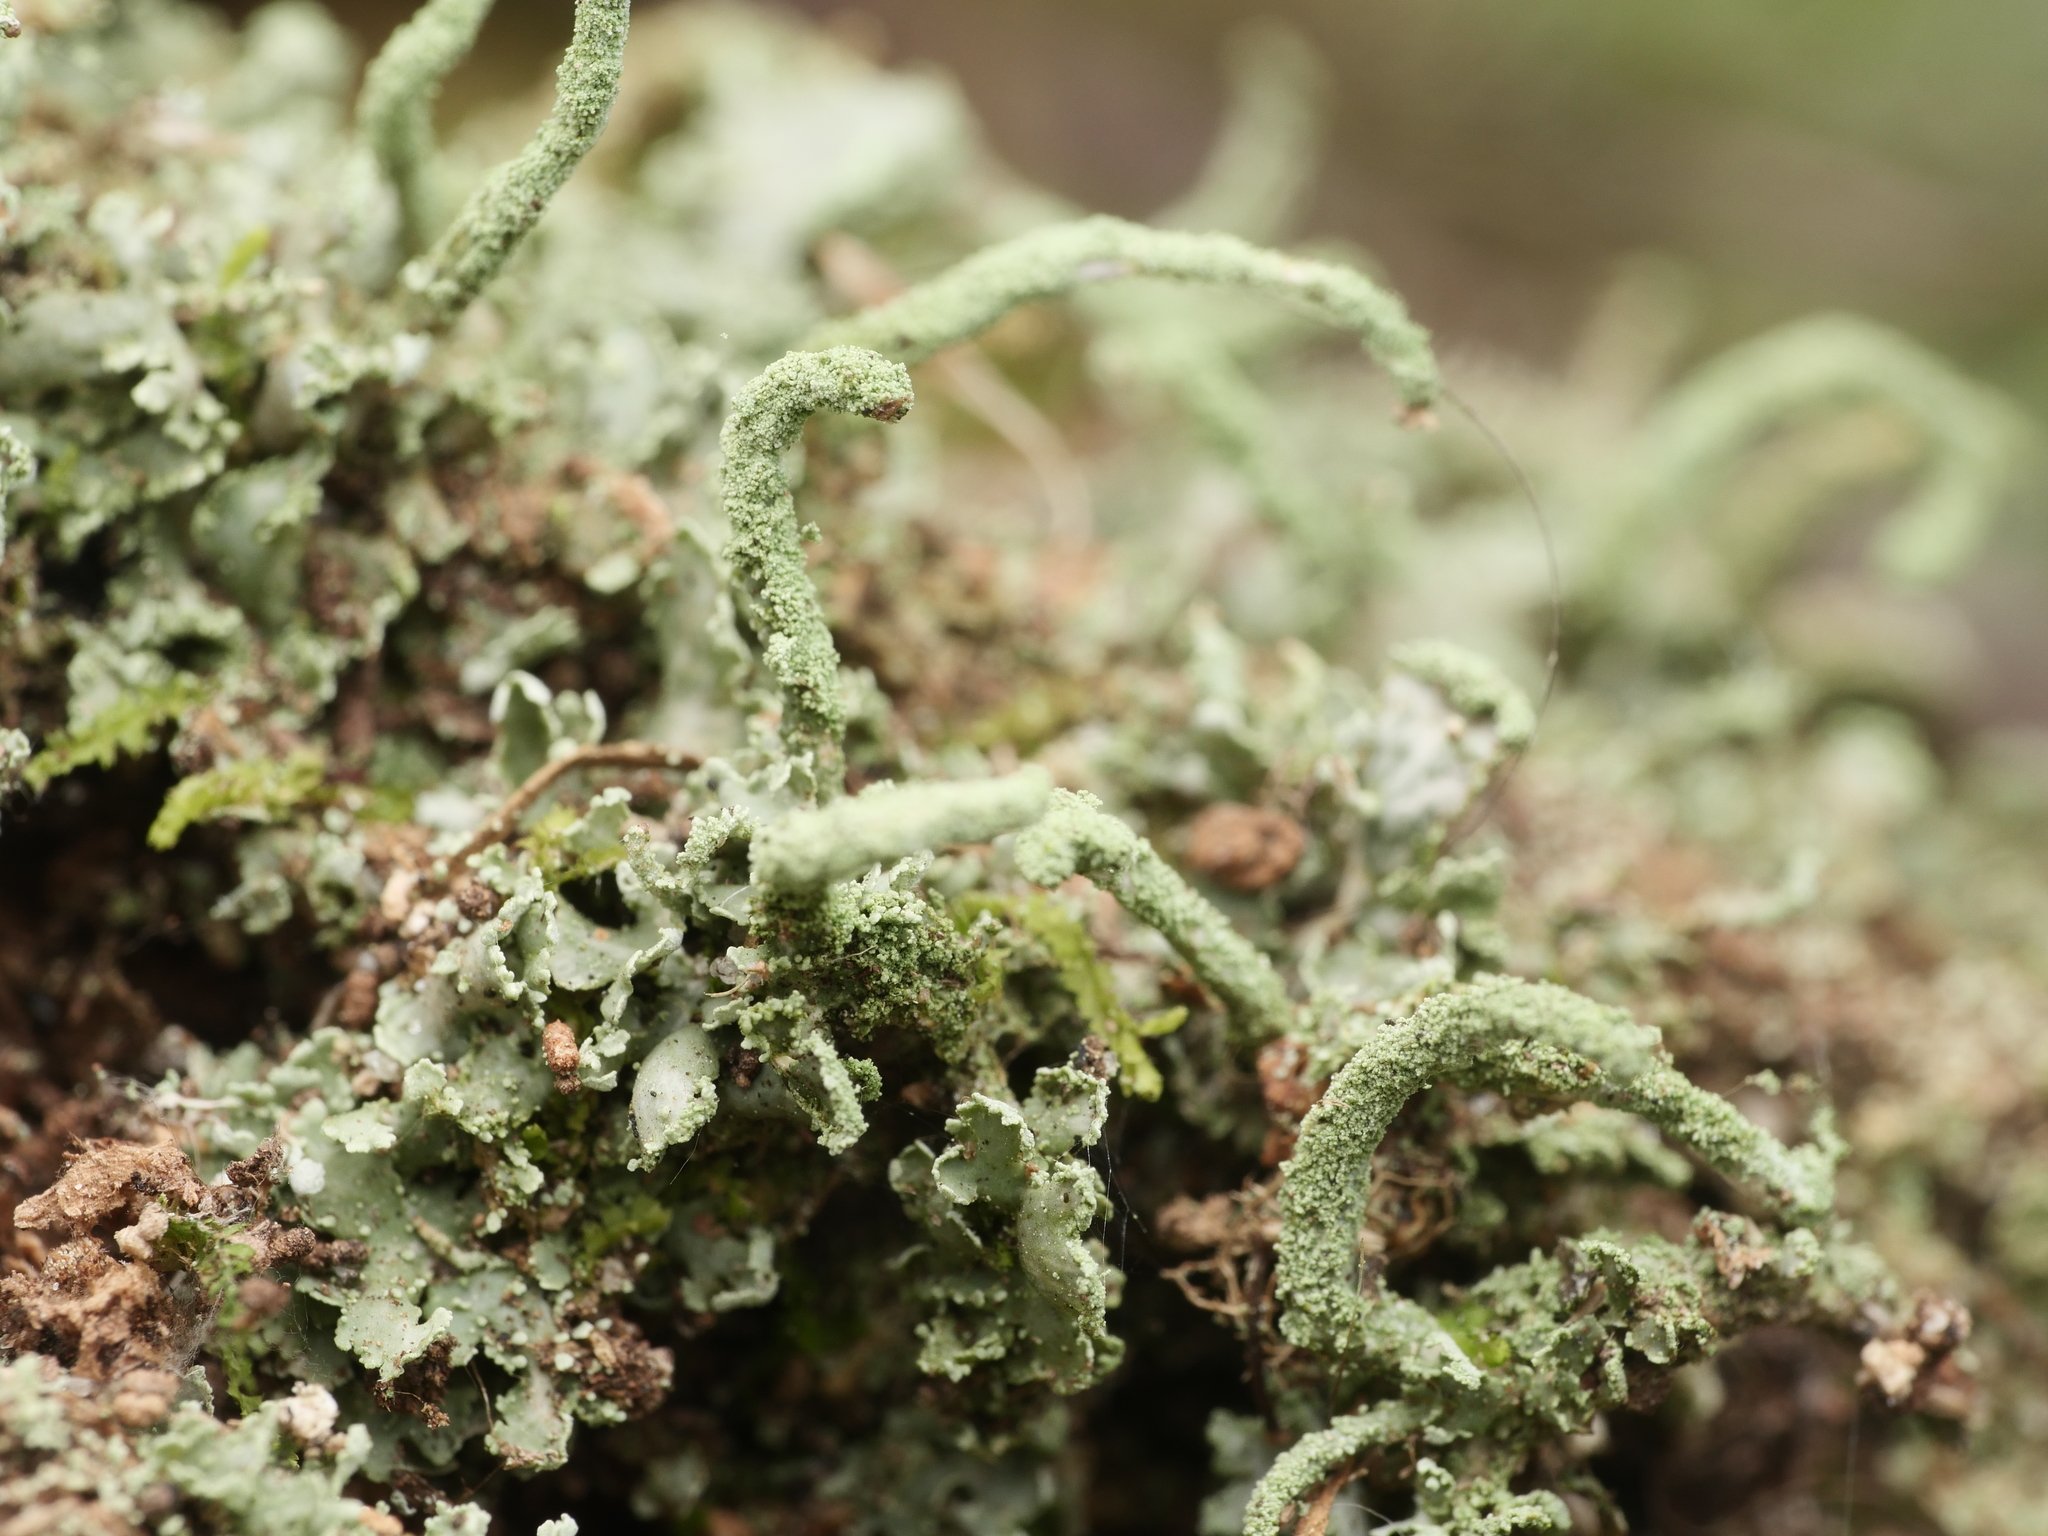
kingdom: Fungi
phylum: Ascomycota
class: Lecanoromycetes
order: Lecanorales
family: Cladoniaceae
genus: Cladonia
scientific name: Cladonia coniocraea
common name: Common powderhorn
